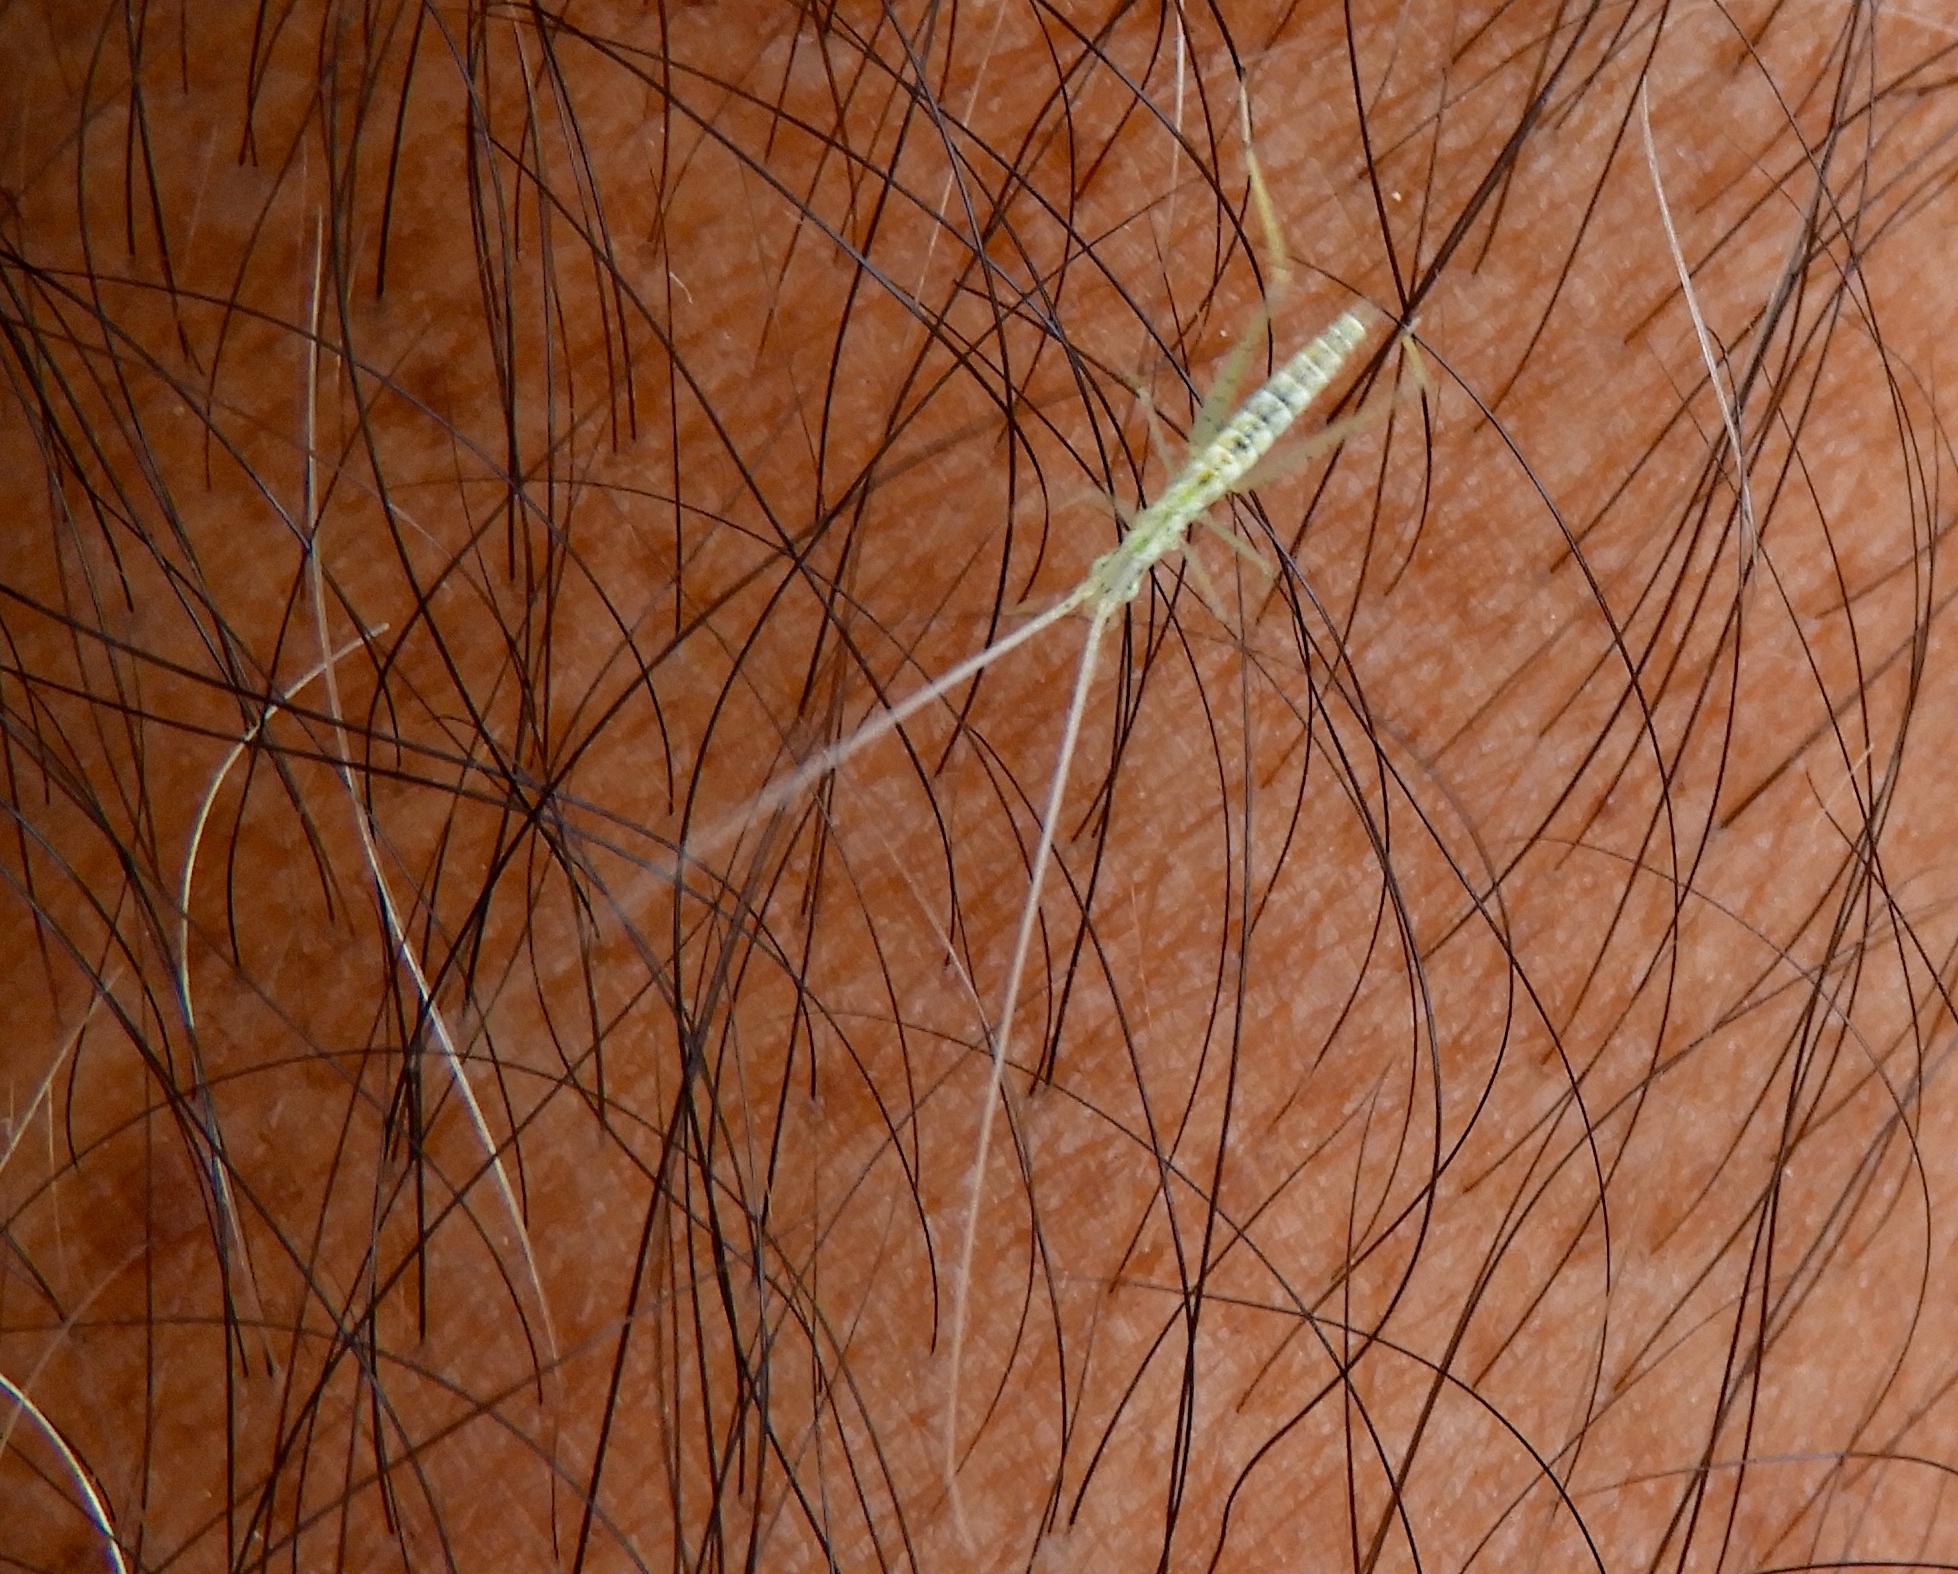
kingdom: Animalia
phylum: Arthropoda
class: Insecta
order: Orthoptera
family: Gryllidae
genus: Oecanthus
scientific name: Oecanthus
